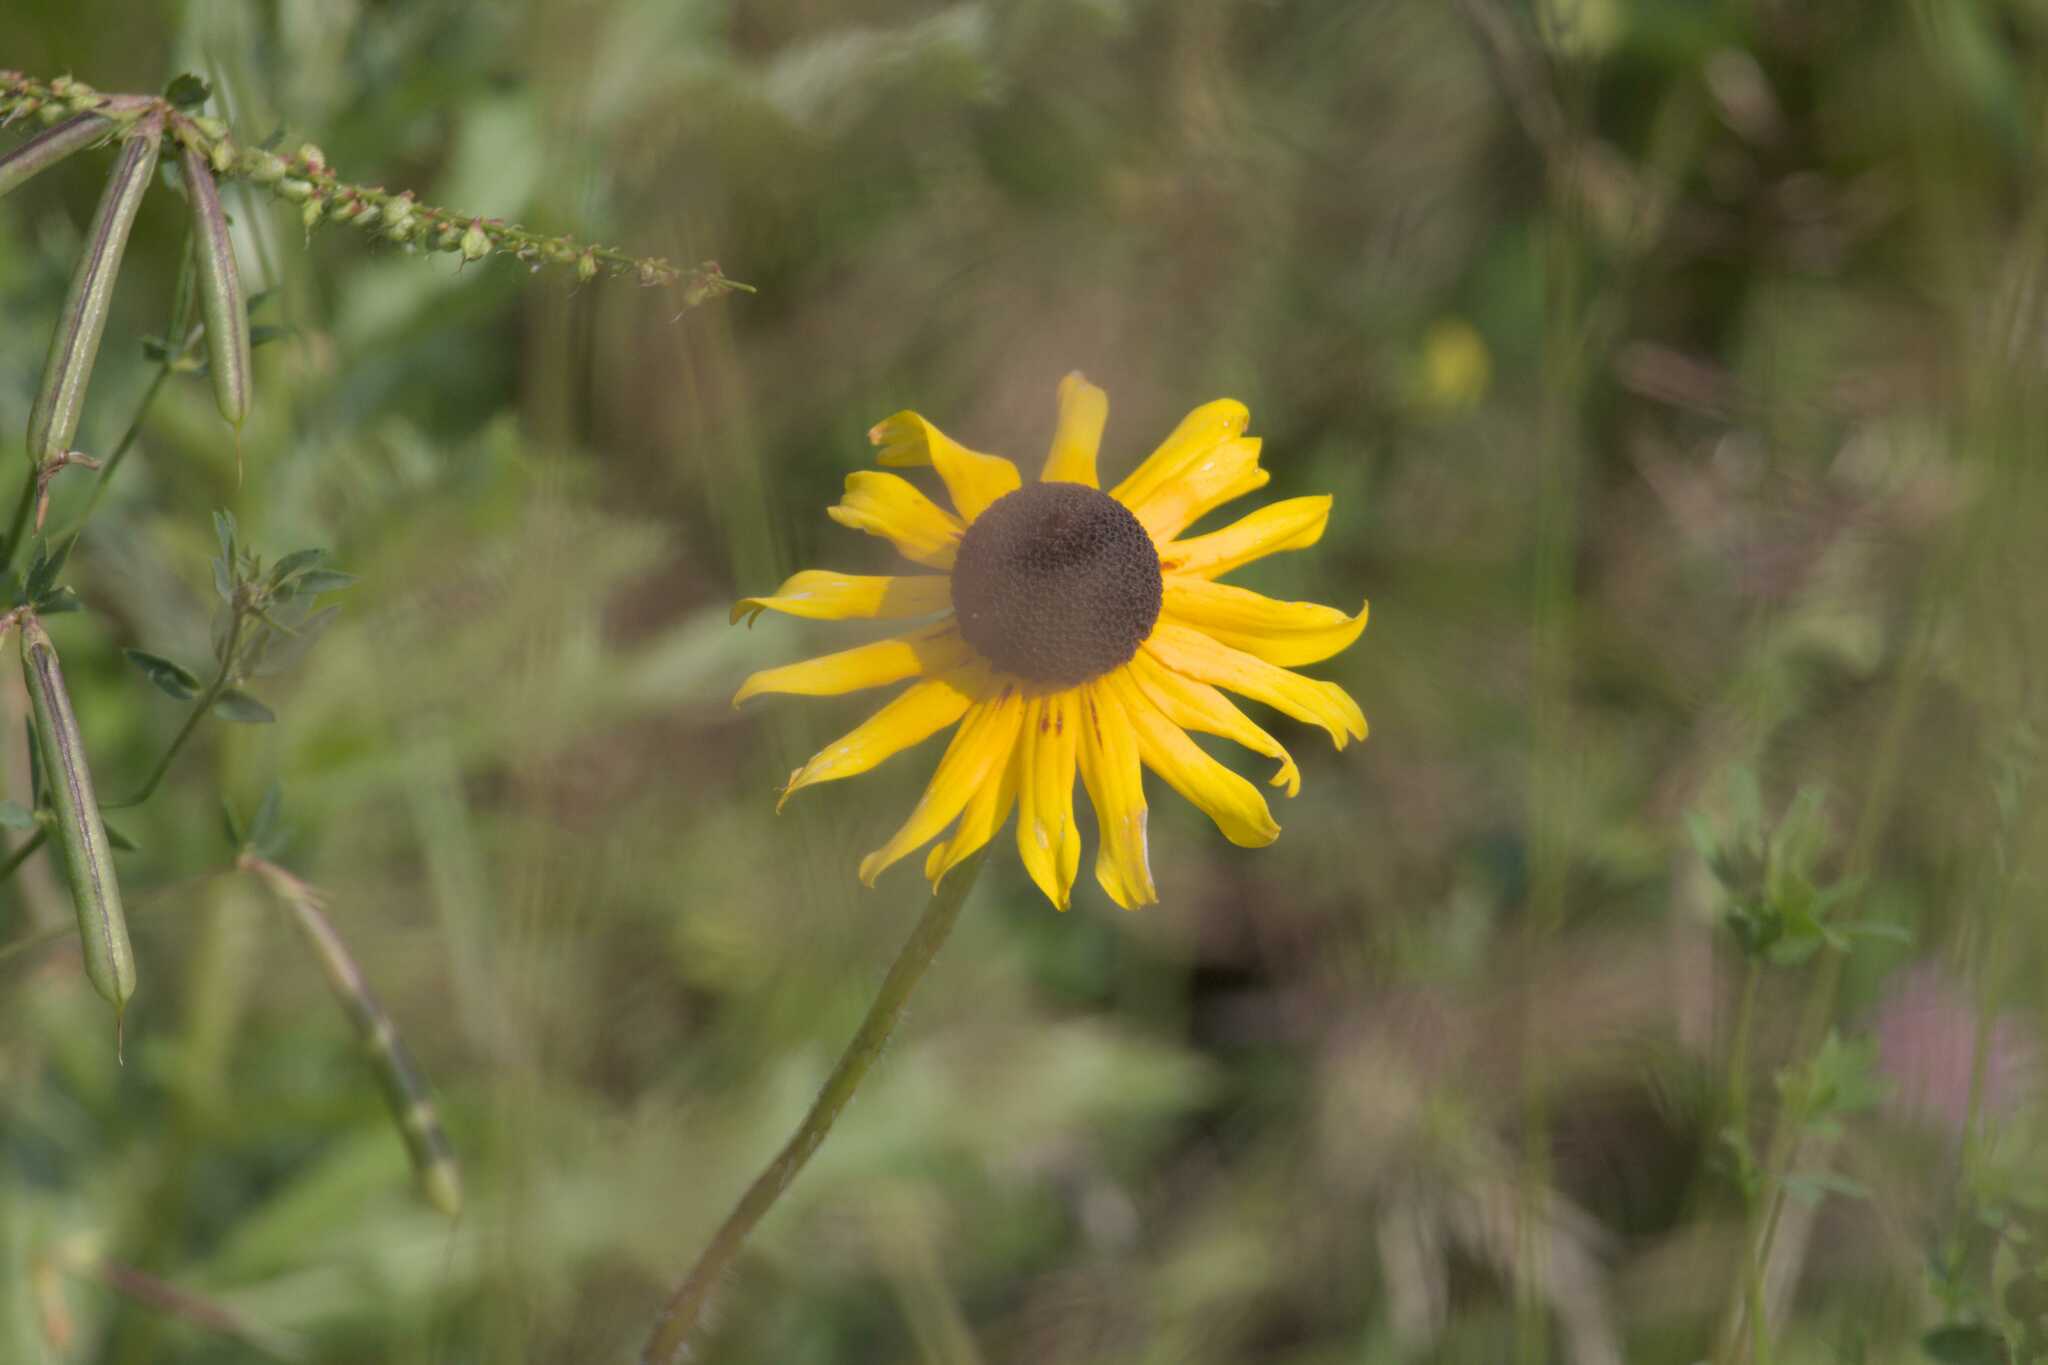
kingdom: Plantae
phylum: Tracheophyta
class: Magnoliopsida
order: Asterales
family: Asteraceae
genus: Rudbeckia
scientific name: Rudbeckia hirta
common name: Black-eyed-susan
